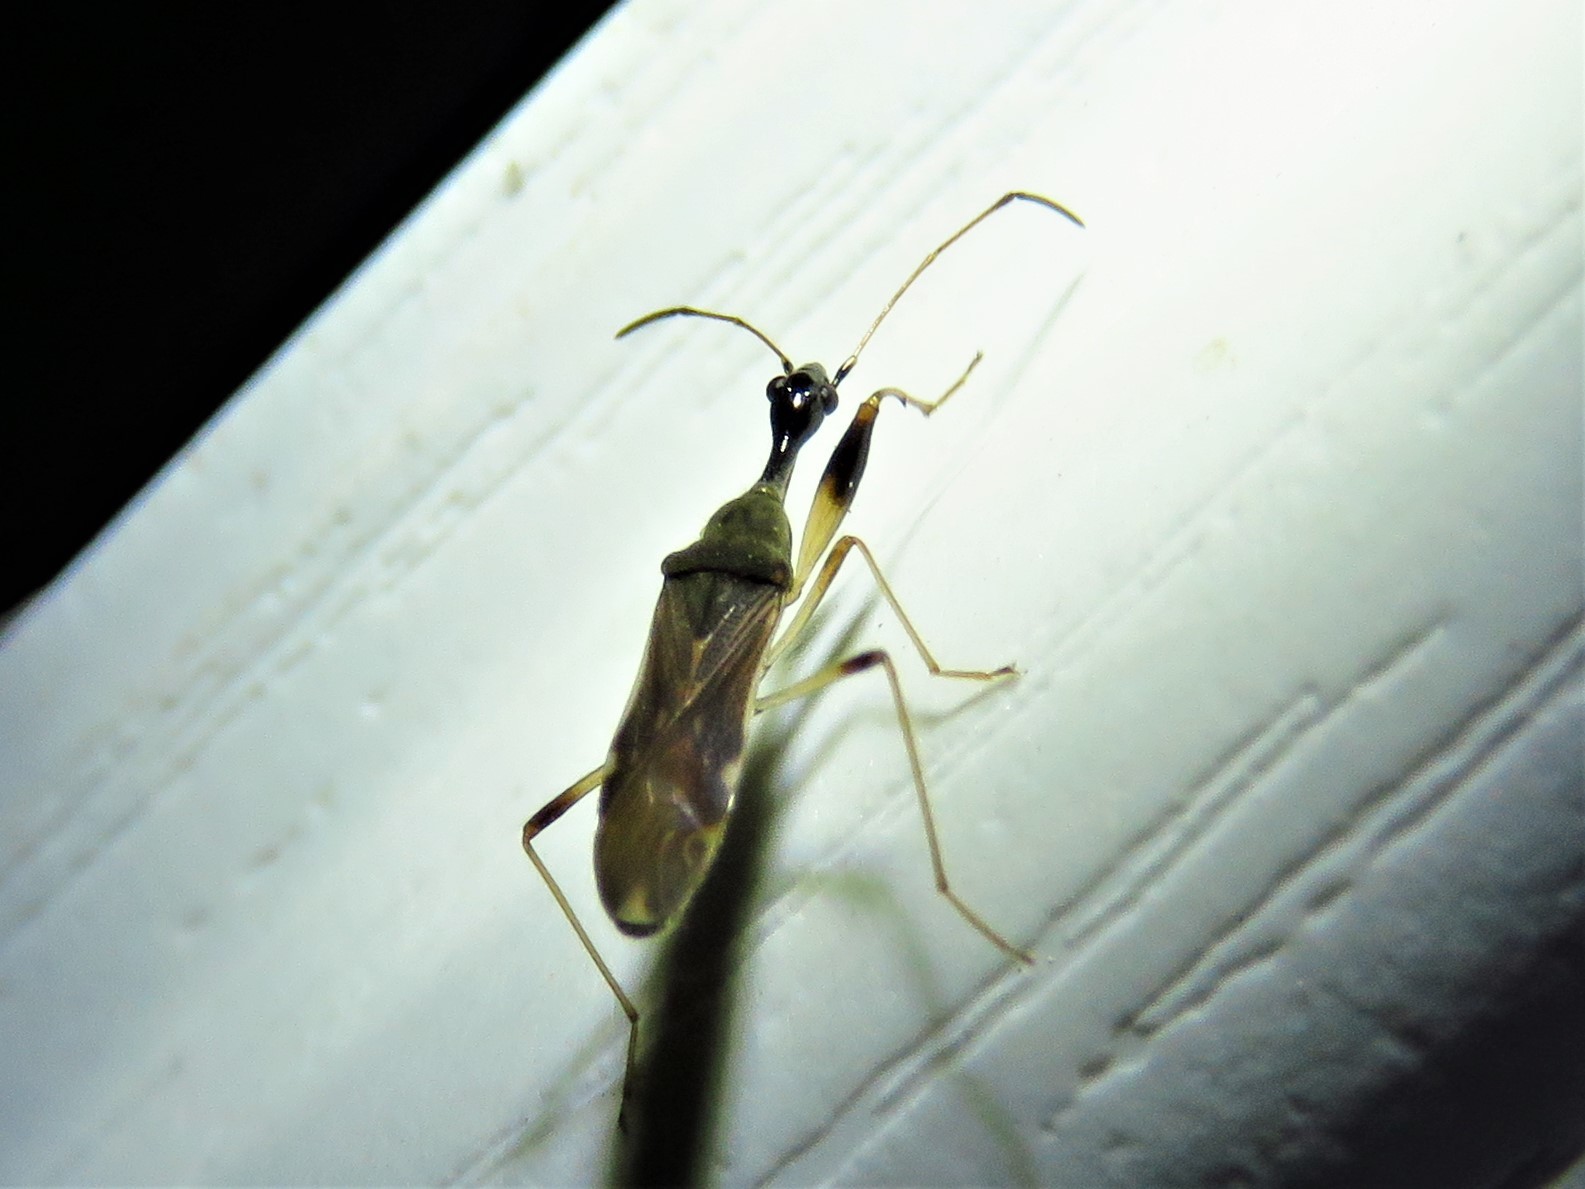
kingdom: Animalia
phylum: Arthropoda
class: Insecta
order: Hemiptera
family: Rhyparochromidae
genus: Myodocha
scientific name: Myodocha serripes
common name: Long-necked seed bug
